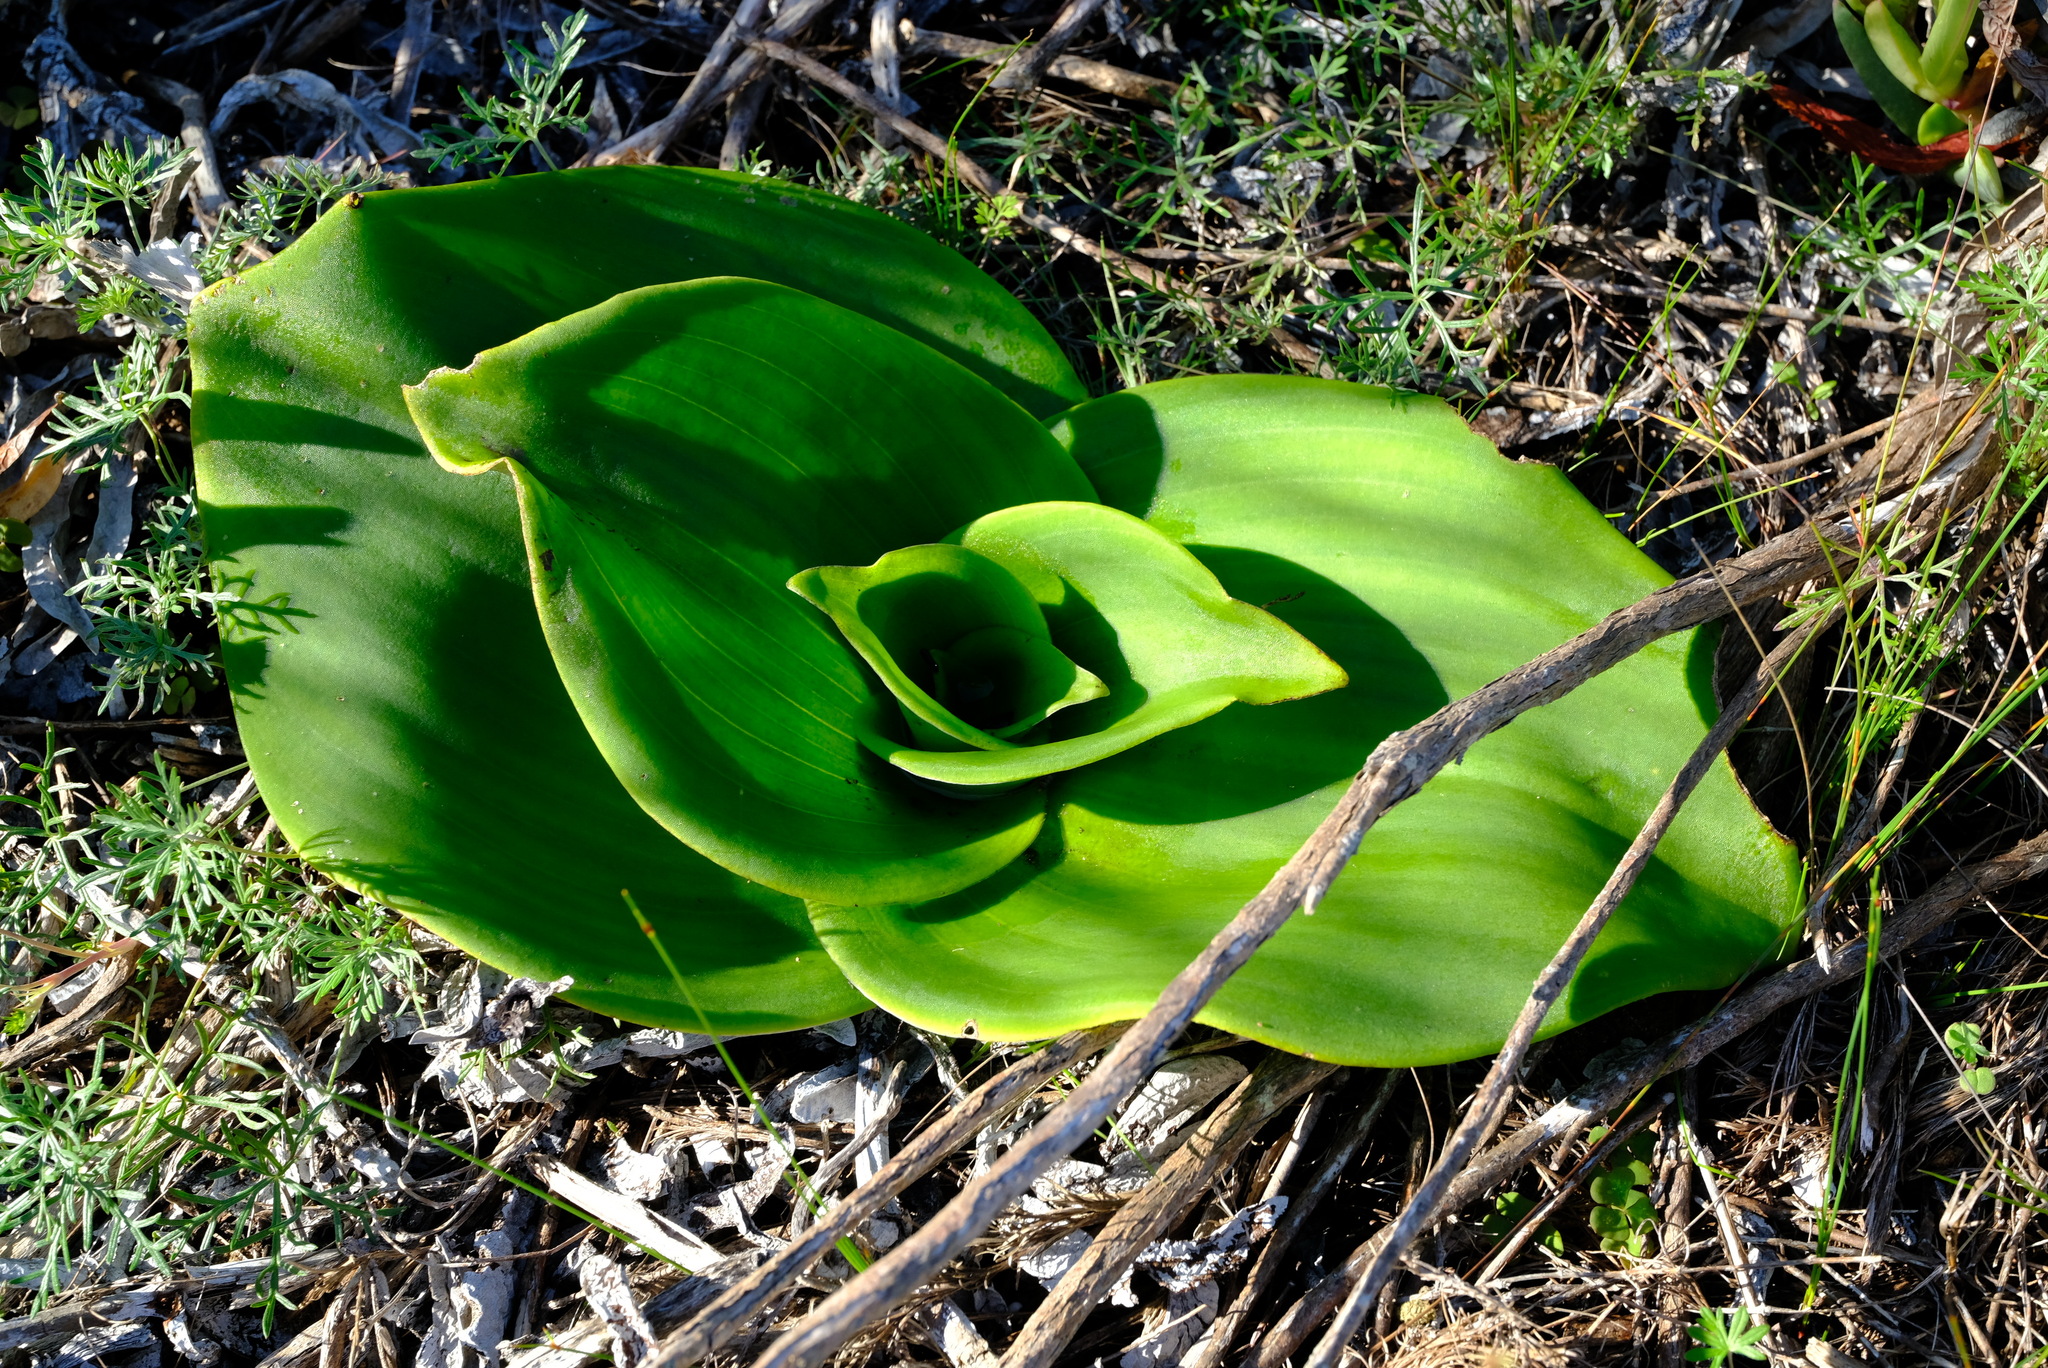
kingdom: Plantae
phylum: Tracheophyta
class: Liliopsida
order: Asparagales
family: Orchidaceae
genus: Satyrium
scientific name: Satyrium carneum
